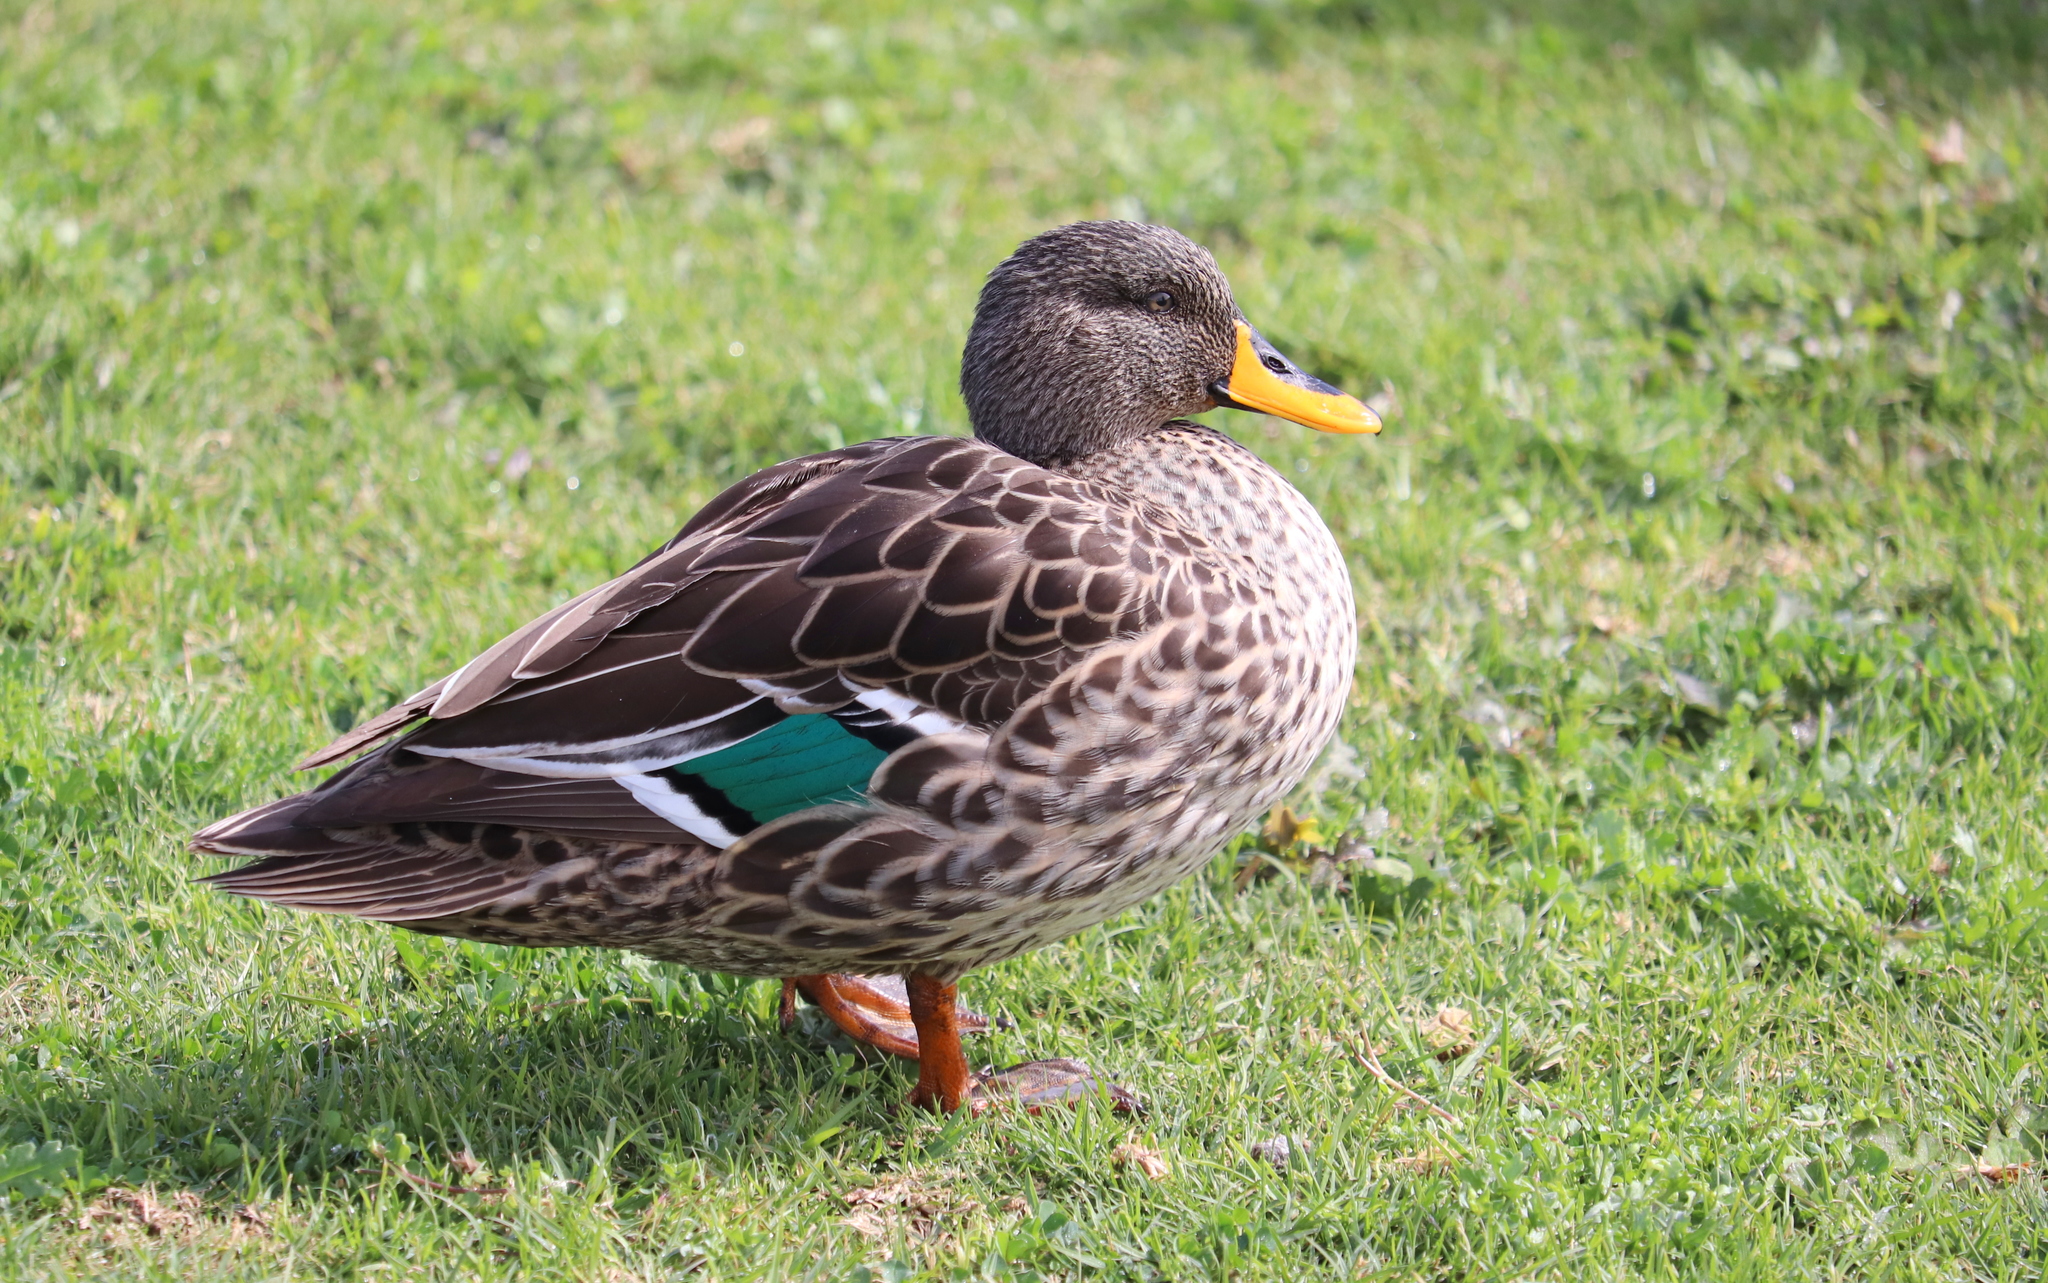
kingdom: Animalia
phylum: Chordata
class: Aves
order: Anseriformes
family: Anatidae
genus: Anas
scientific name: Anas undulata
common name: Yellow-billed duck
